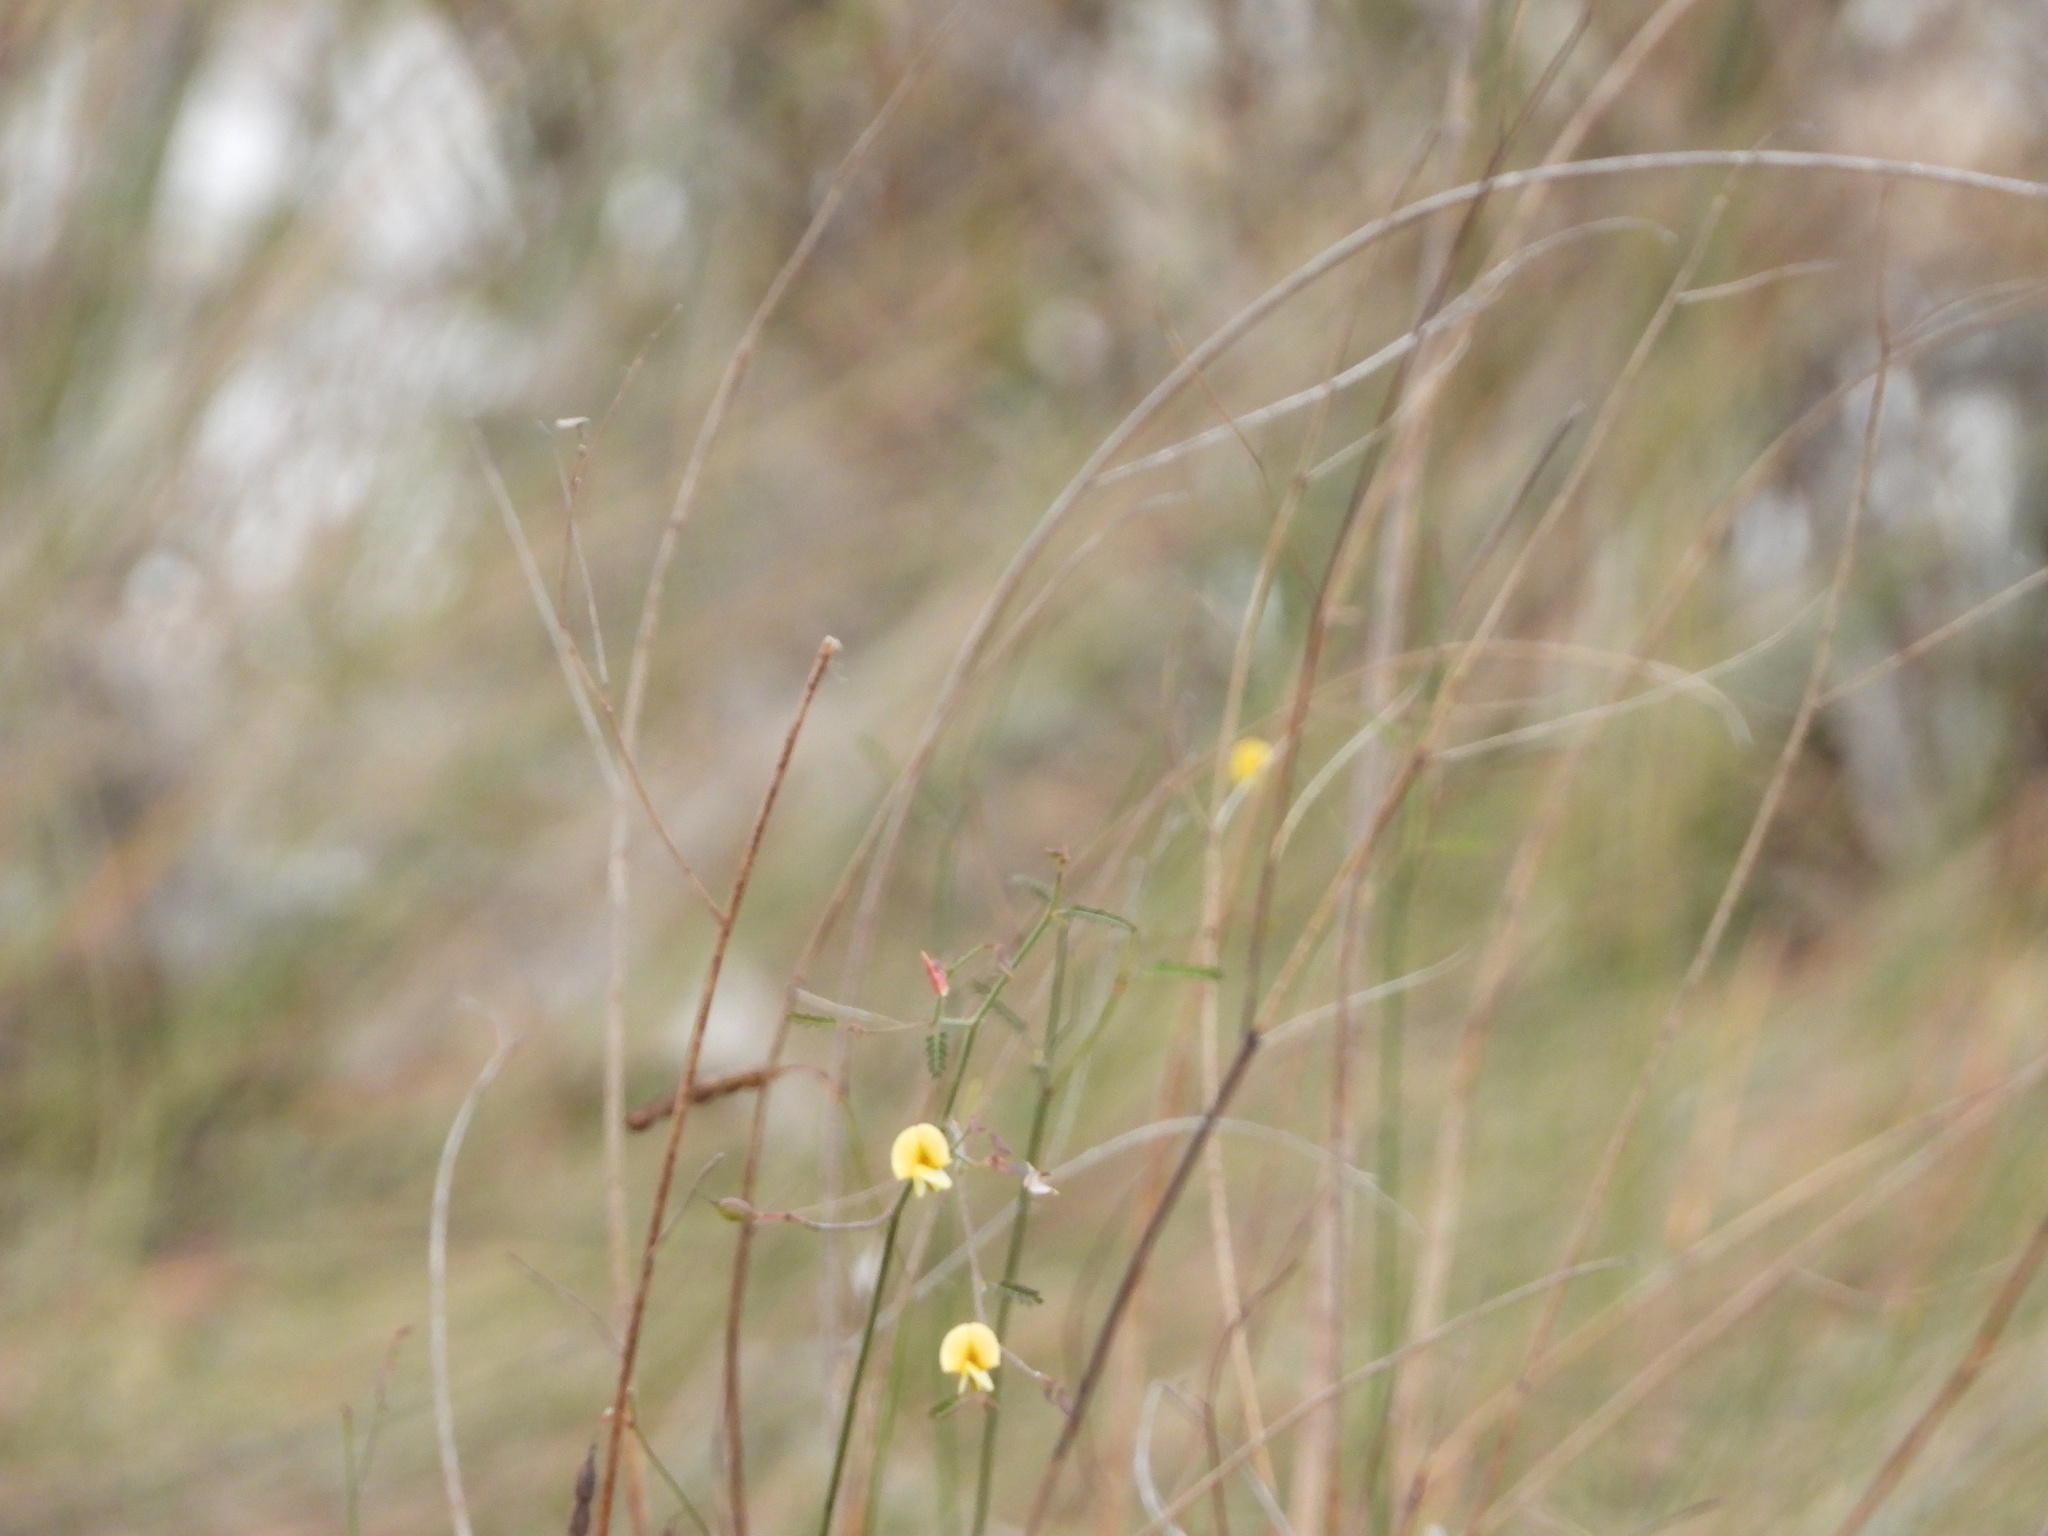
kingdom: Plantae
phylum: Tracheophyta
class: Magnoliopsida
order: Fabales
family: Fabaceae
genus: Aeschynomene
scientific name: Aeschynomene pratensis
